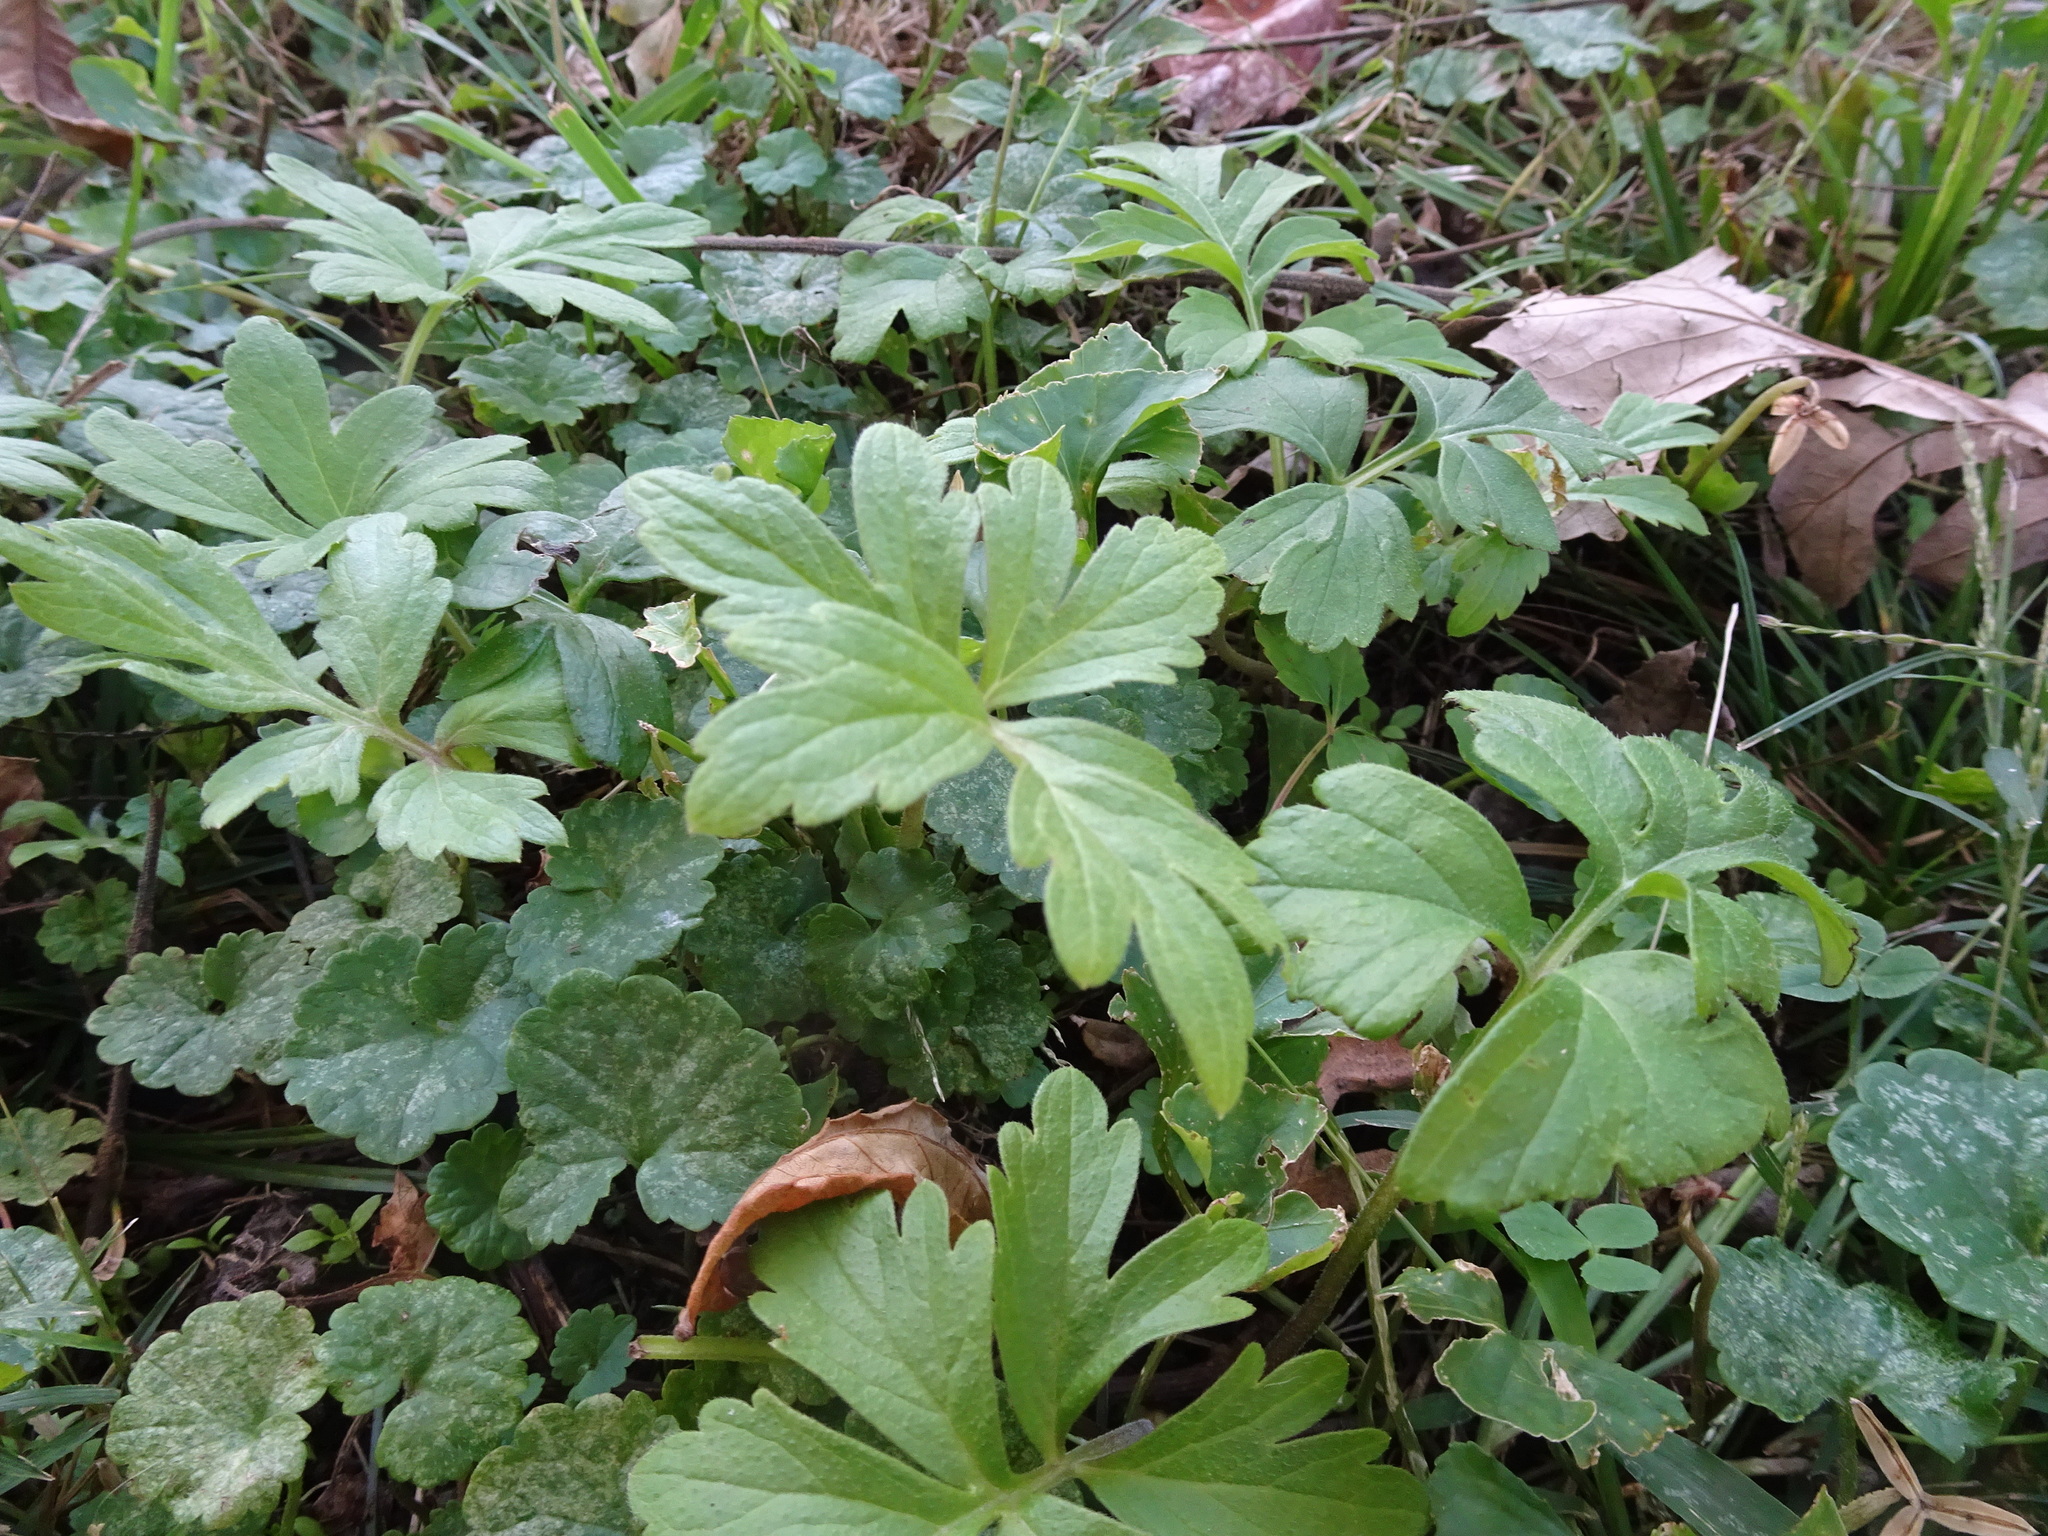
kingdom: Plantae
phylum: Tracheophyta
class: Magnoliopsida
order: Boraginales
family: Hydrophyllaceae
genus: Hydrophyllum
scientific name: Hydrophyllum virginianum
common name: Virginia waterleaf
